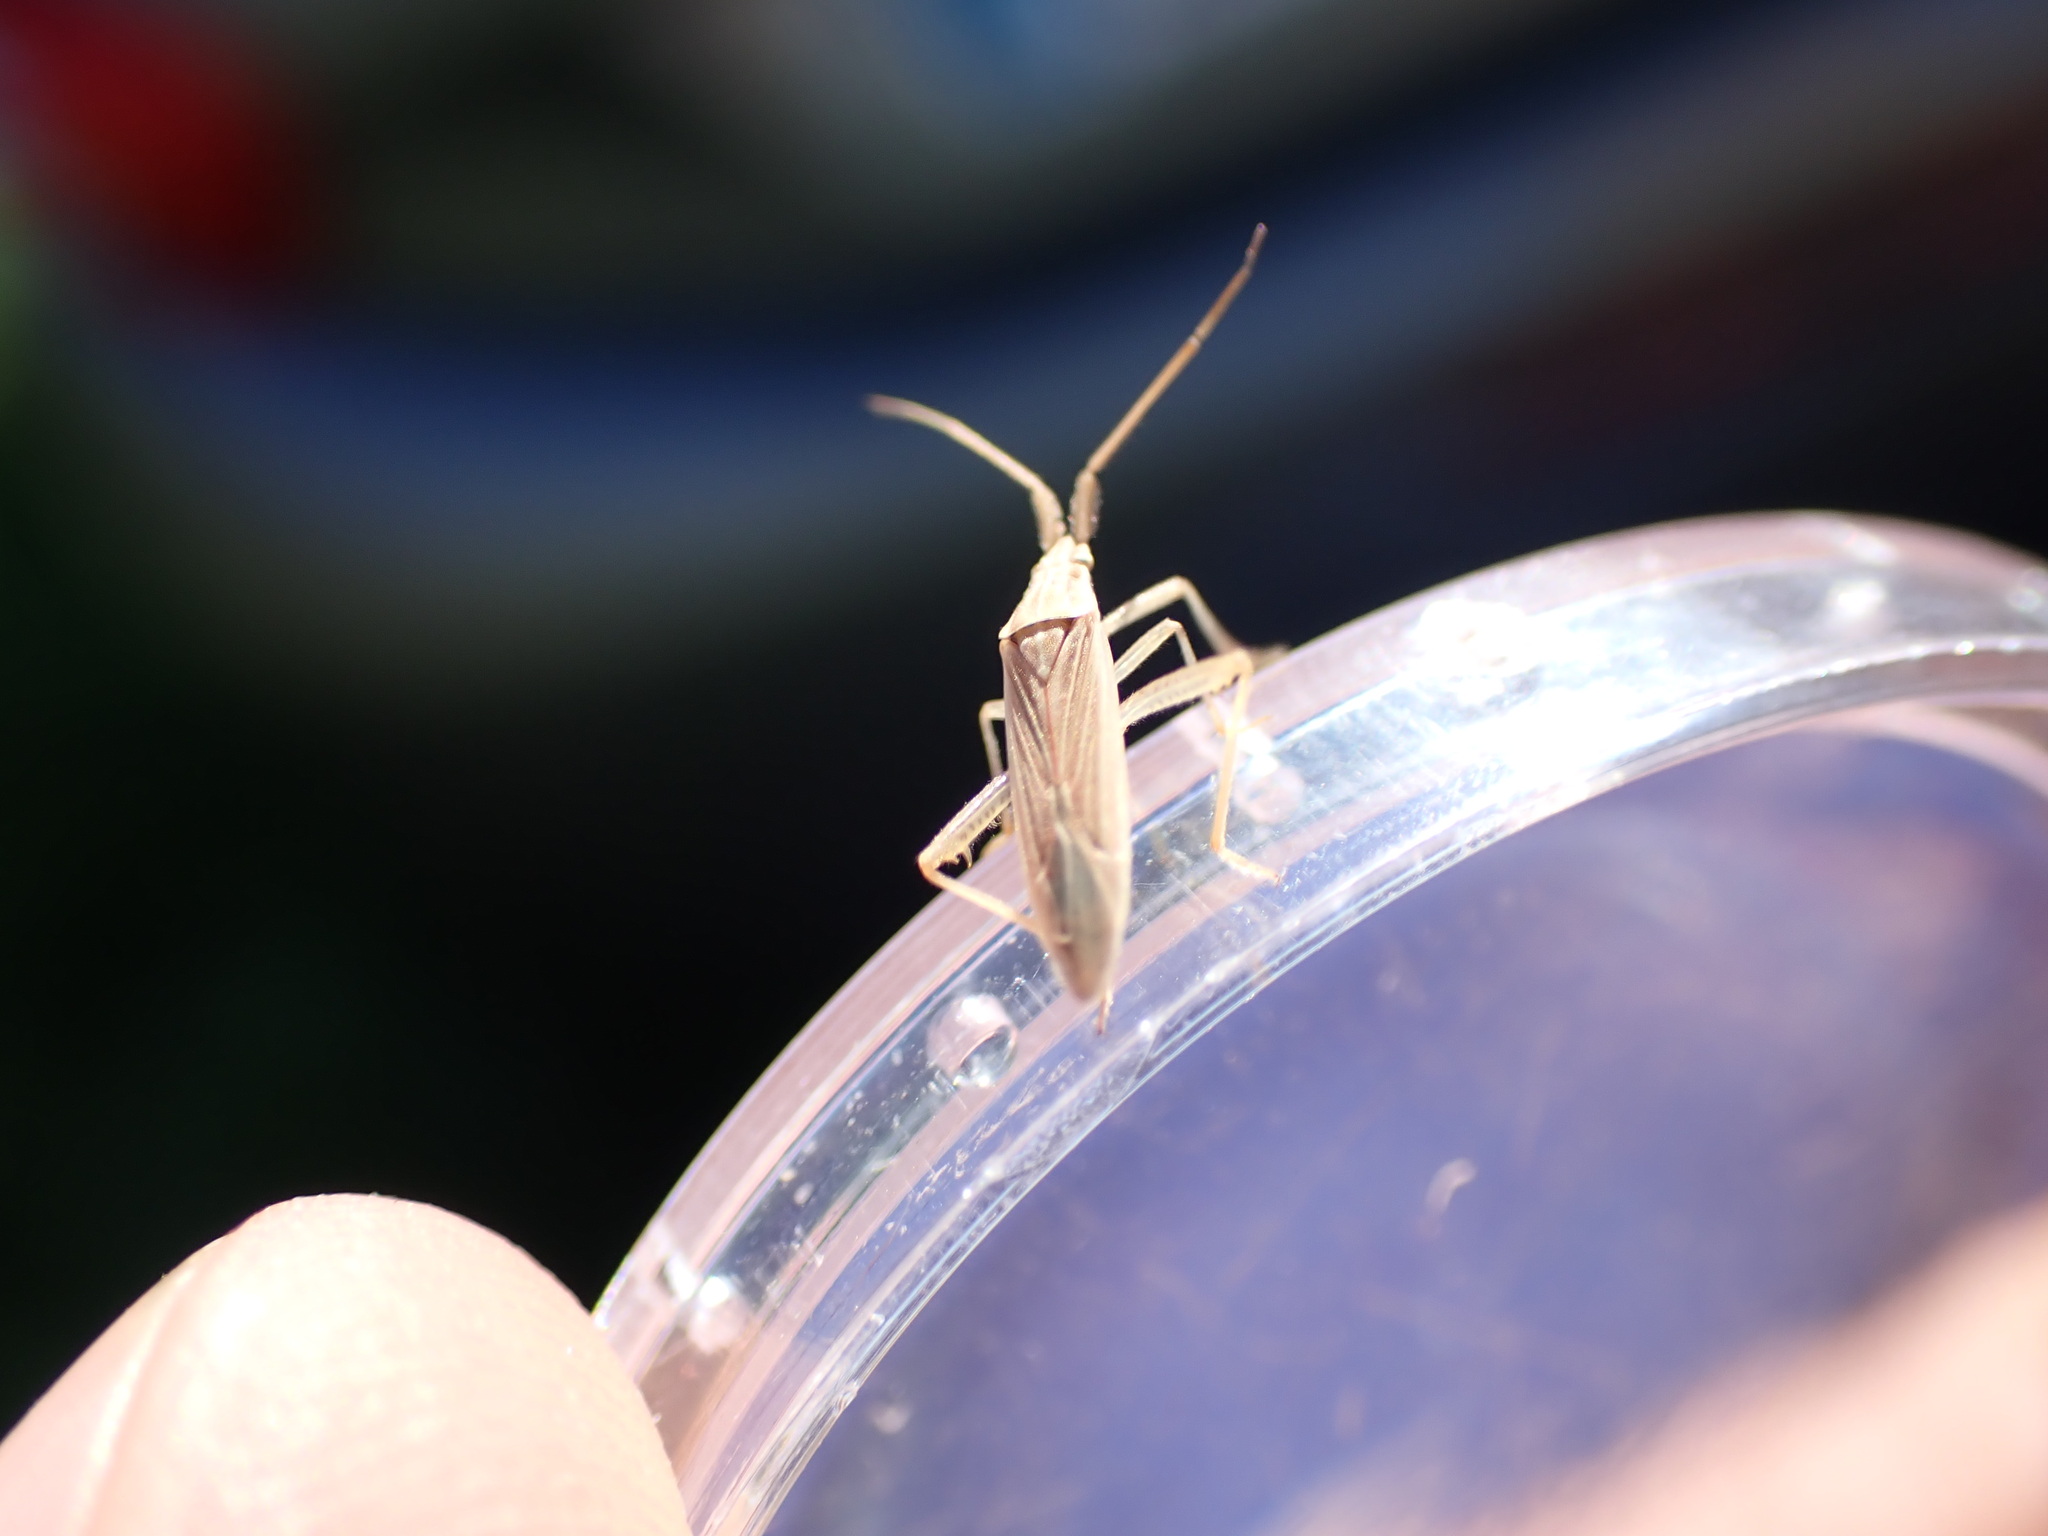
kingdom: Animalia
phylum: Arthropoda
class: Insecta
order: Hemiptera
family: Miridae
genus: Stenodema
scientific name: Stenodema calcarata
